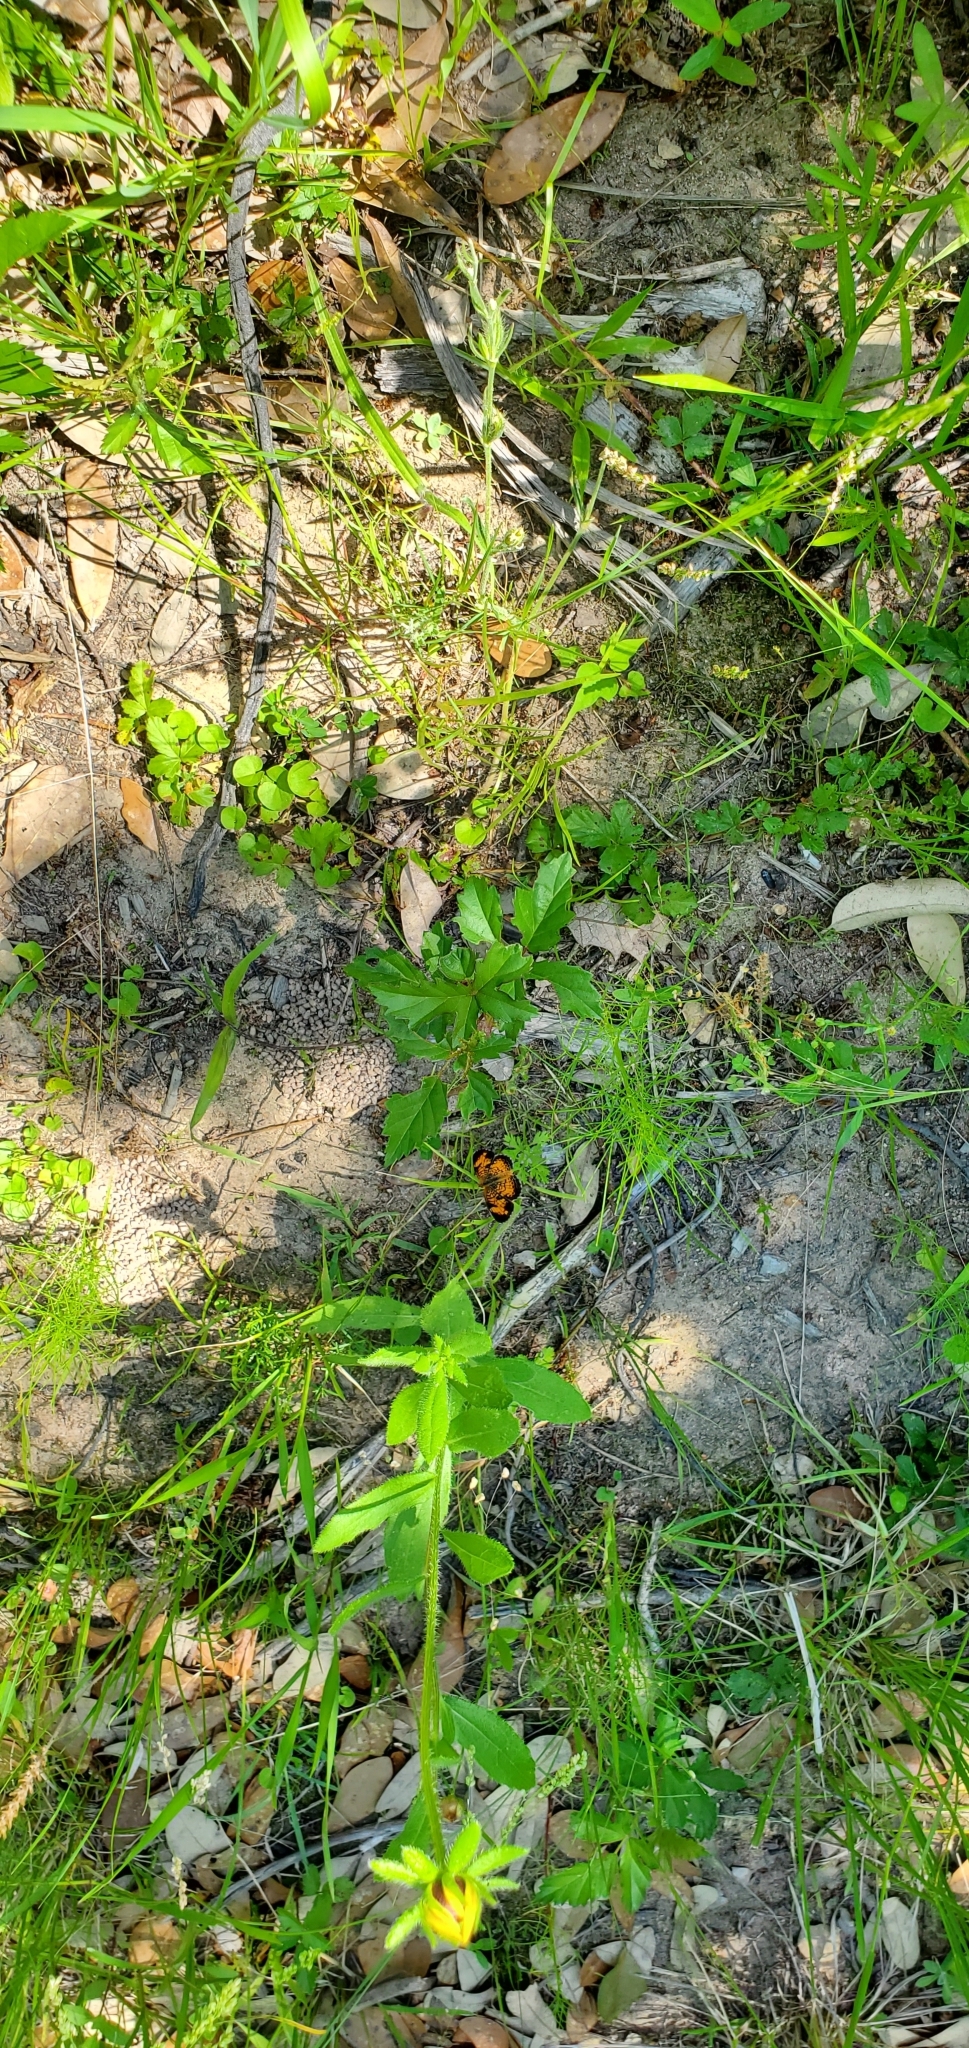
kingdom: Animalia
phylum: Arthropoda
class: Insecta
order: Lepidoptera
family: Nymphalidae
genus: Phyciodes
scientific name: Phyciodes tharos
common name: Pearl crescent
